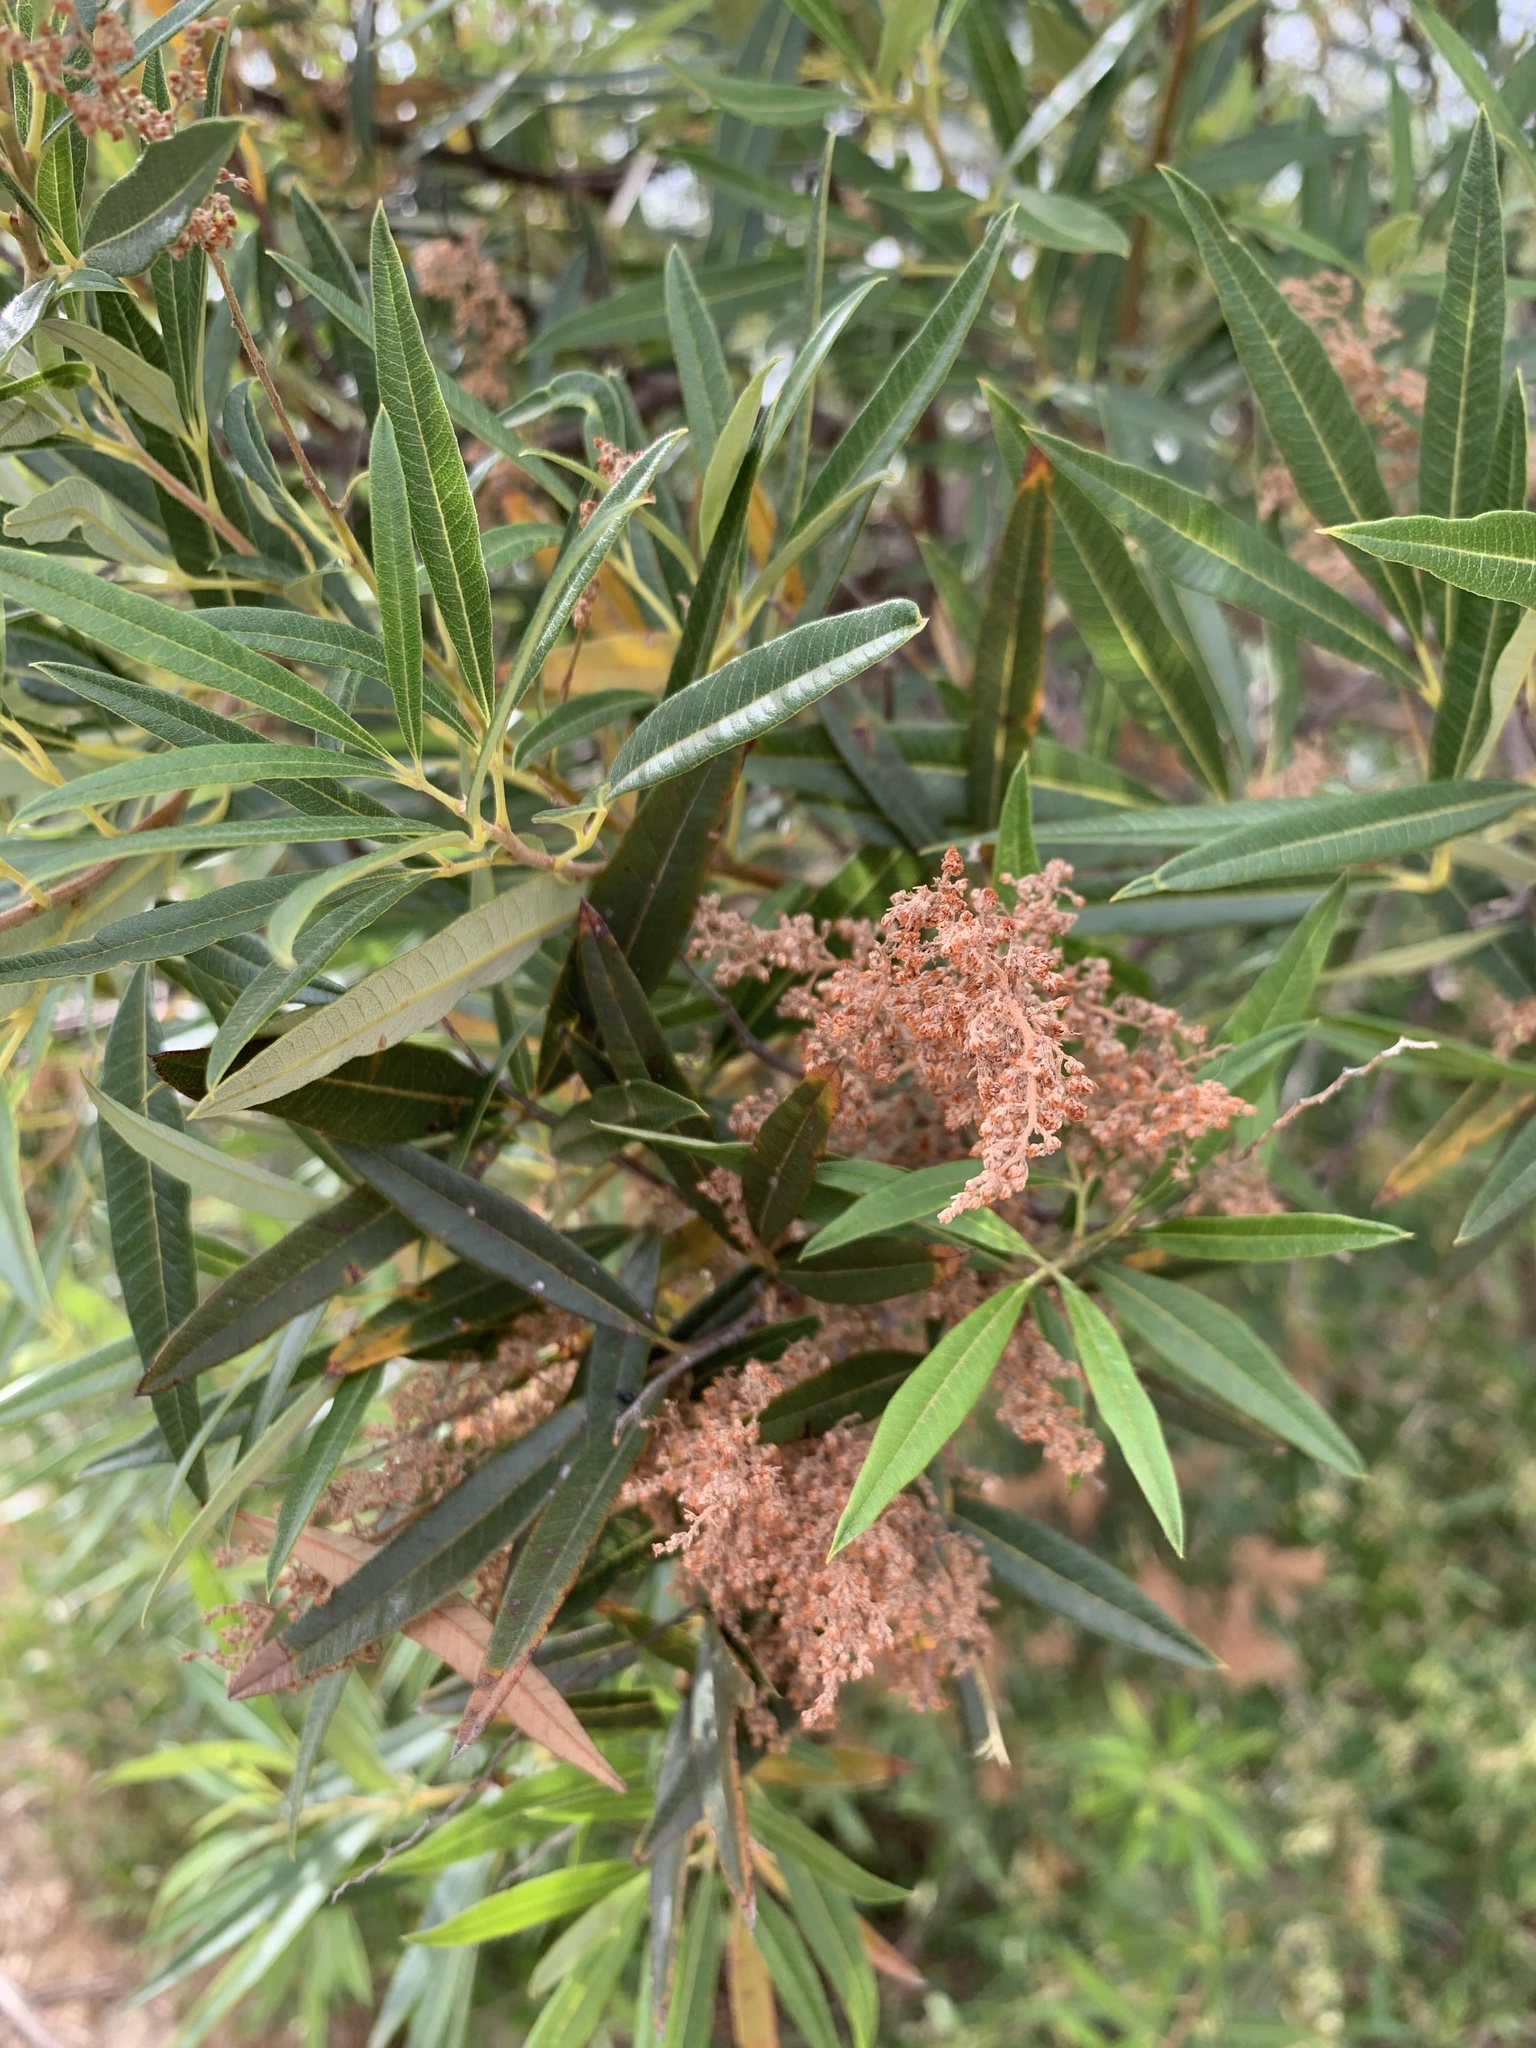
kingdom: Plantae
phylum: Tracheophyta
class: Magnoliopsida
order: Sapindales
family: Anacardiaceae
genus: Searsia
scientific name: Searsia angustifolia
